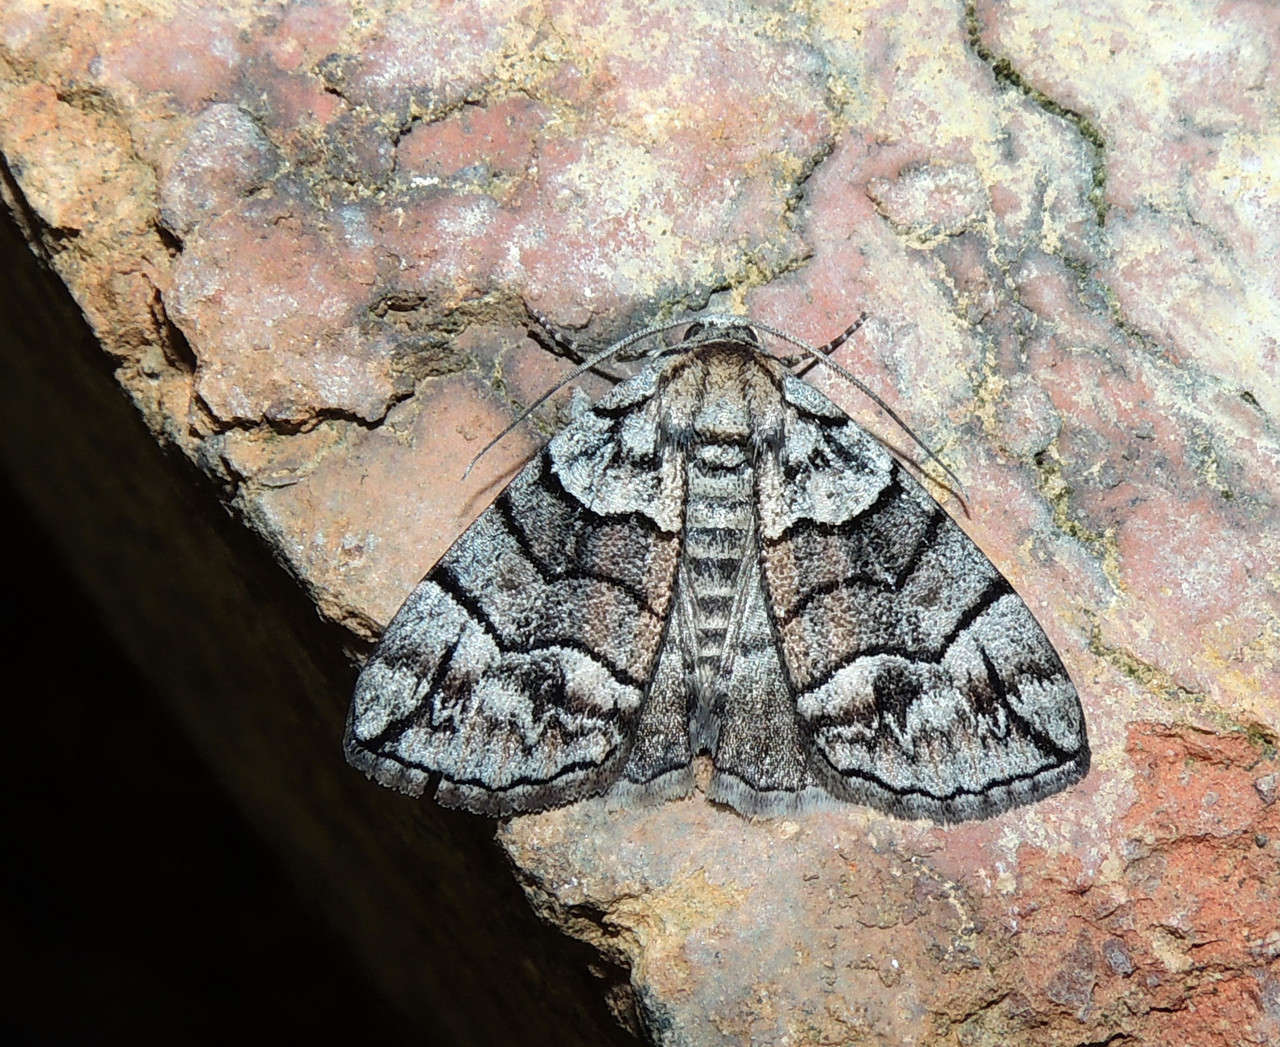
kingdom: Animalia
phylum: Arthropoda
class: Insecta
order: Lepidoptera
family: Geometridae
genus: Dysbatus
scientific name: Dysbatus stenodesma
